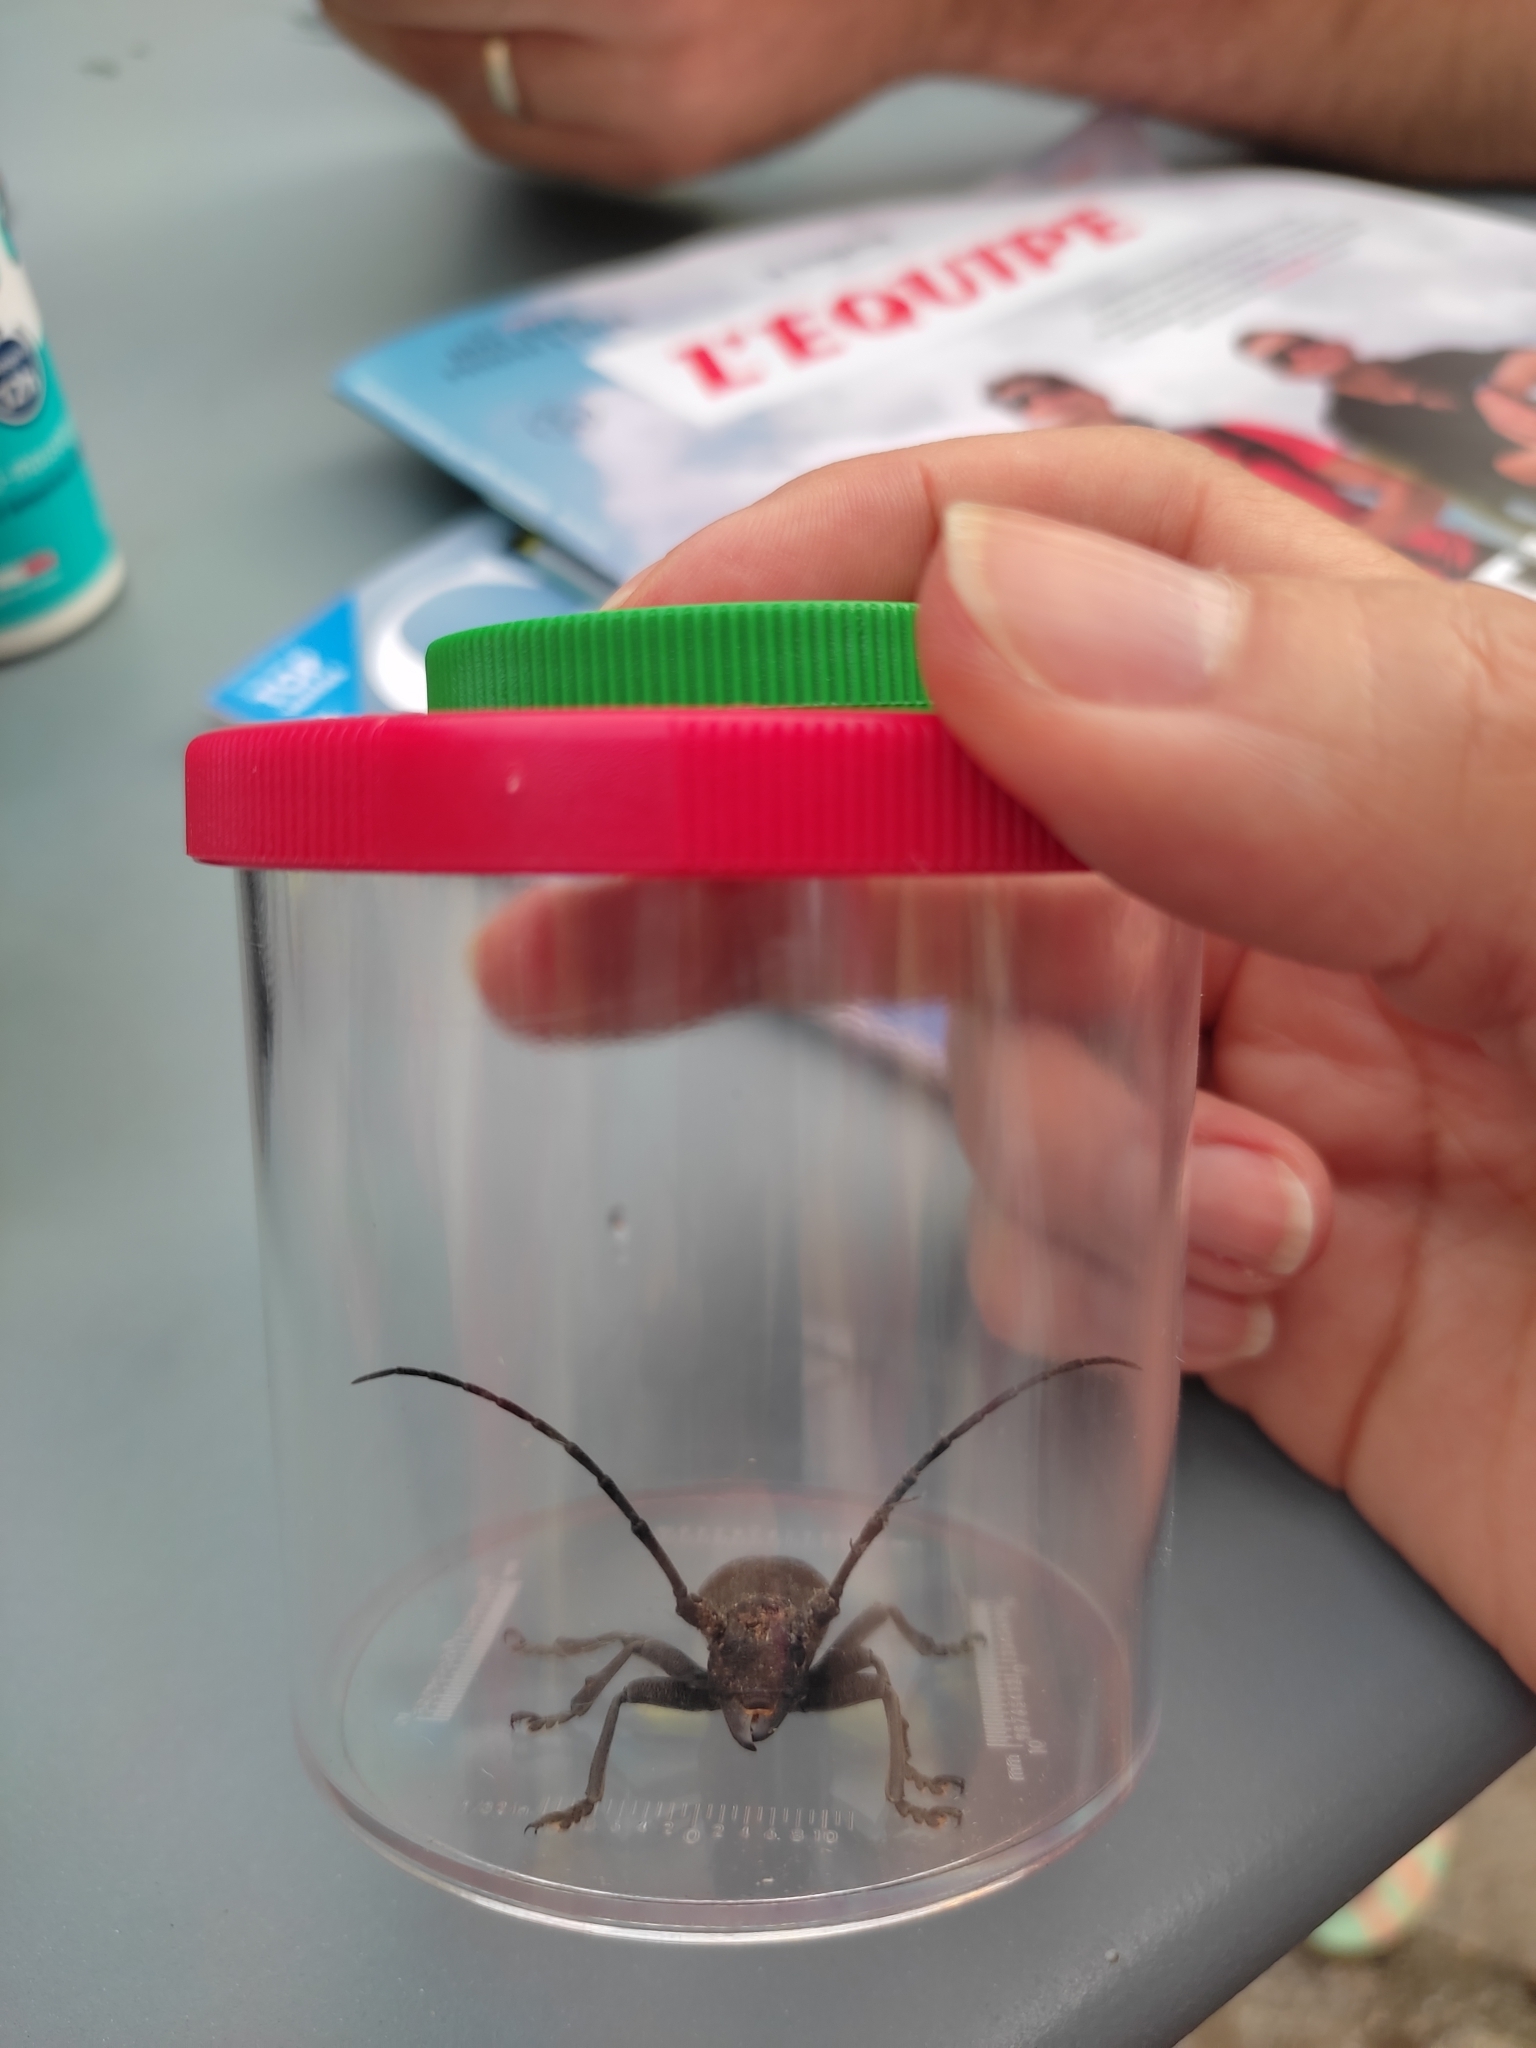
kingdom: Animalia
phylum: Arthropoda
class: Insecta
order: Coleoptera
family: Cerambycidae
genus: Morimus
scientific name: Morimus asper
